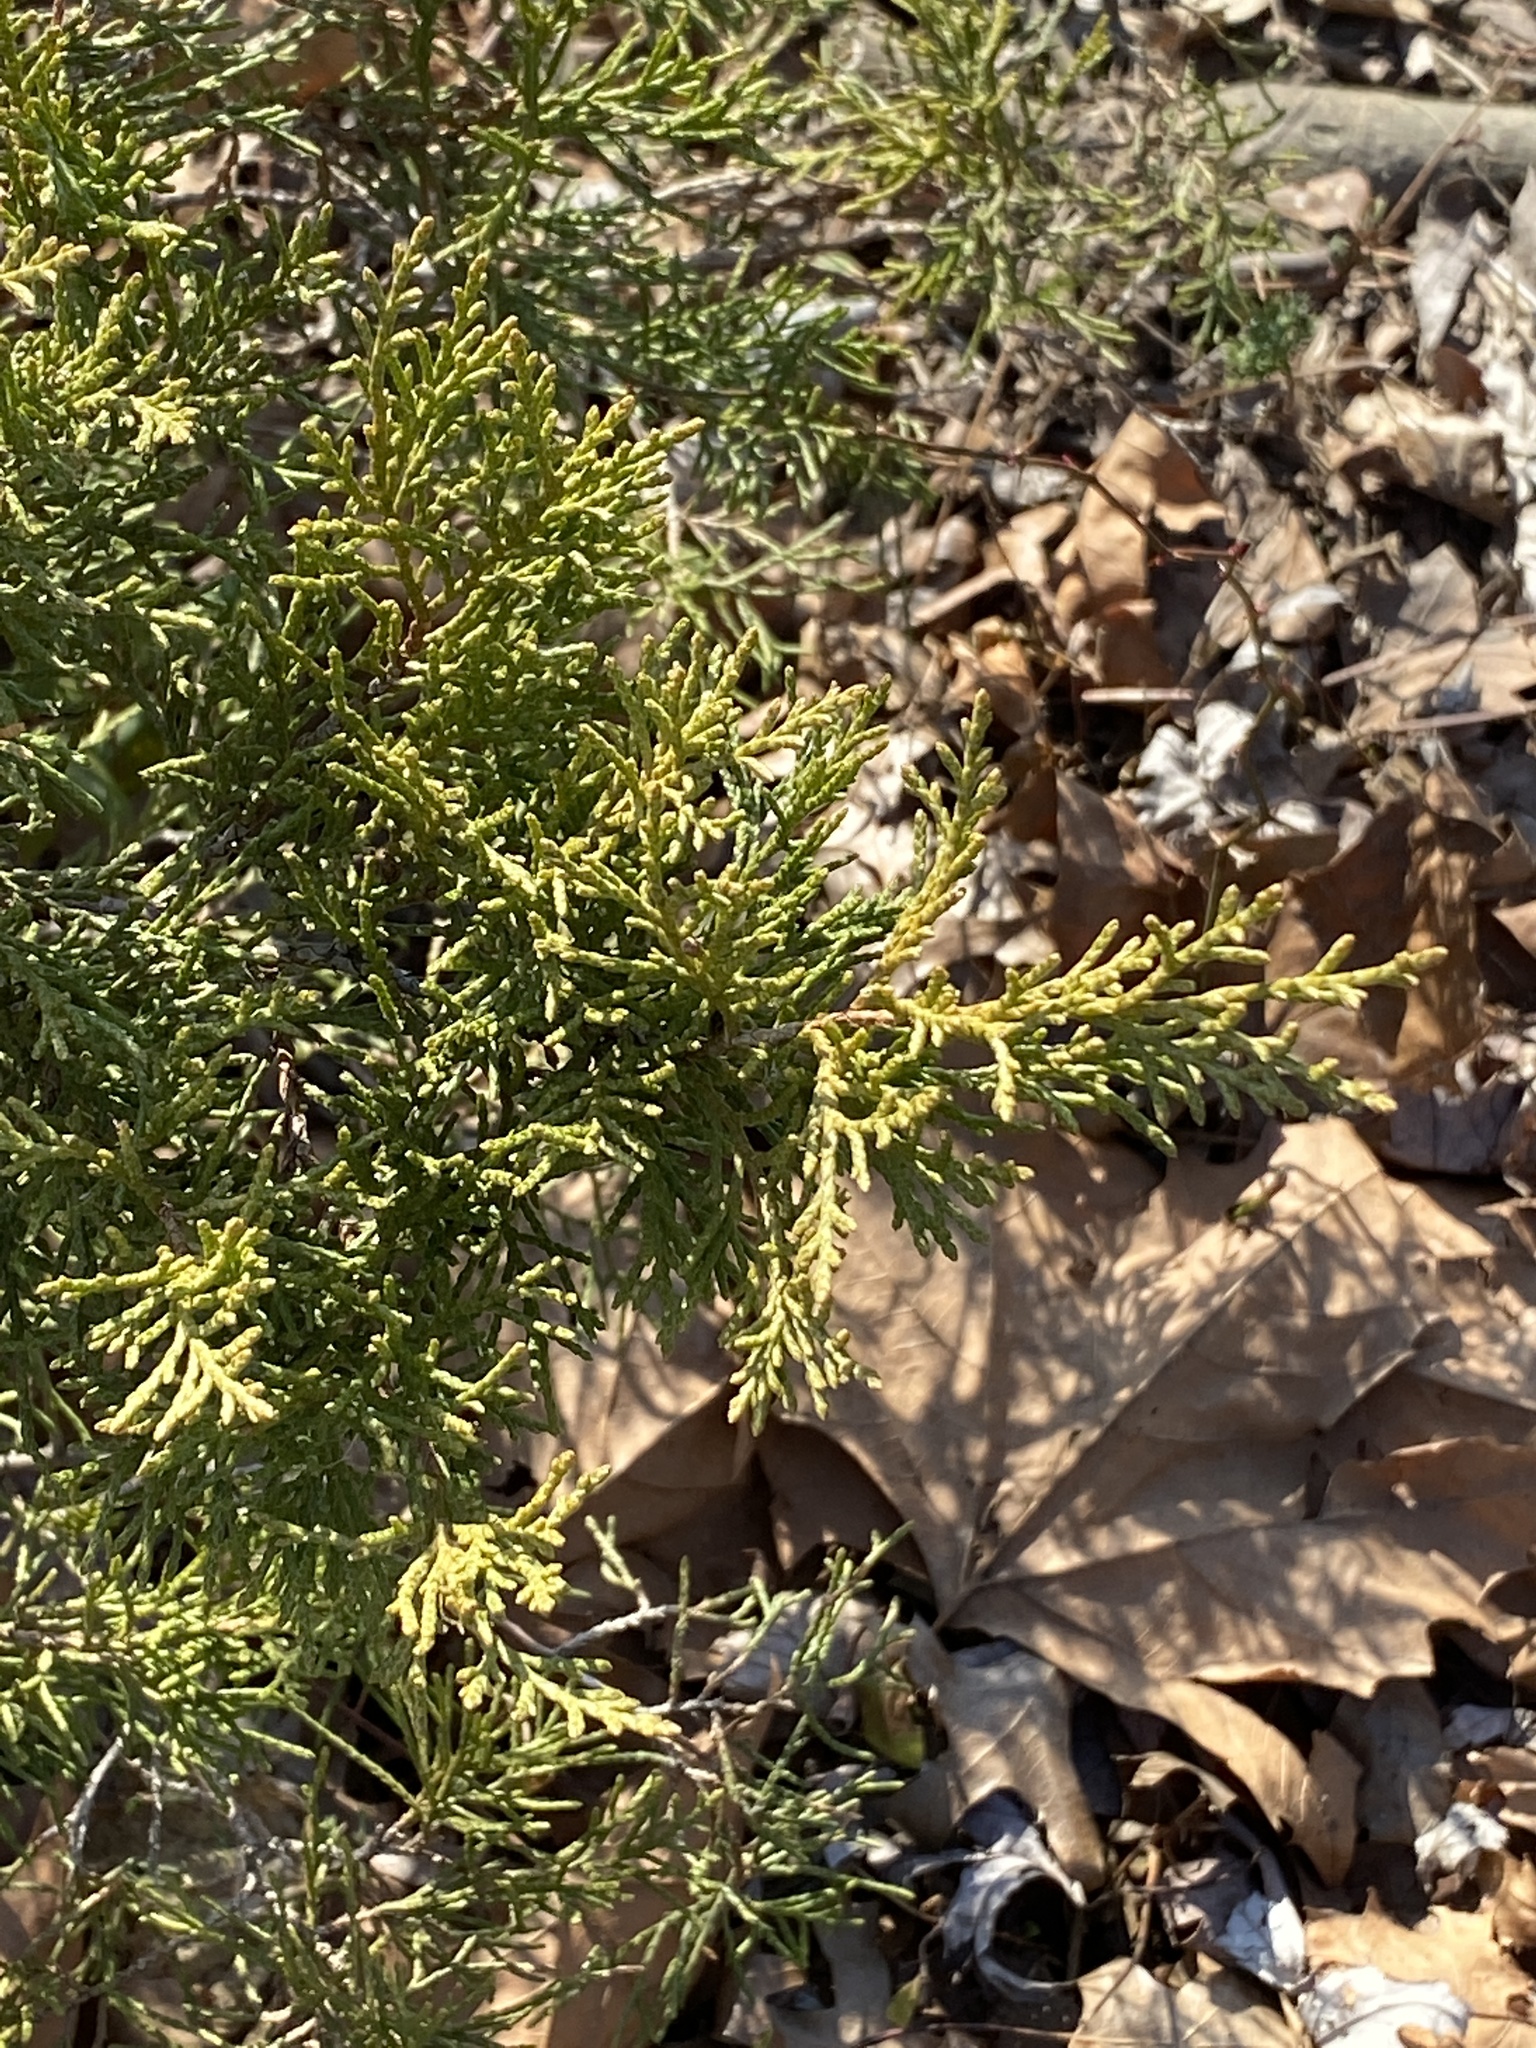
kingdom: Plantae
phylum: Tracheophyta
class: Pinopsida
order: Pinales
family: Cupressaceae
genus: Juniperus
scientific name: Juniperus virginiana
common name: Red juniper
